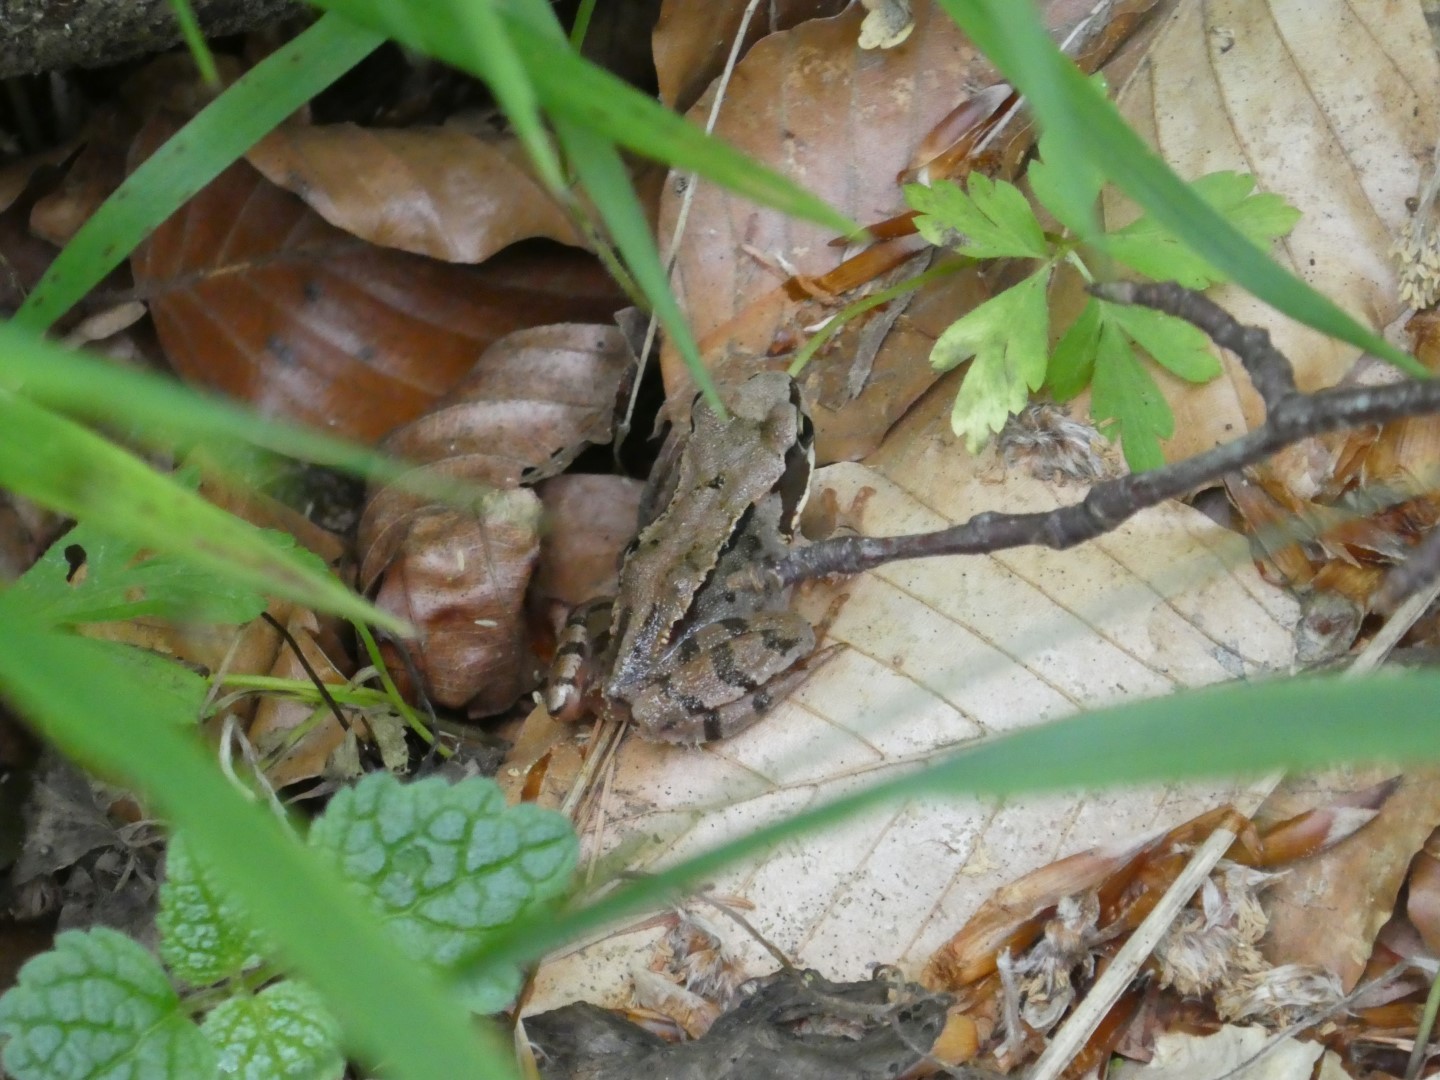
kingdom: Animalia
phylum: Chordata
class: Amphibia
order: Anura
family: Ranidae
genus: Rana
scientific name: Rana temporaria
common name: Common frog
